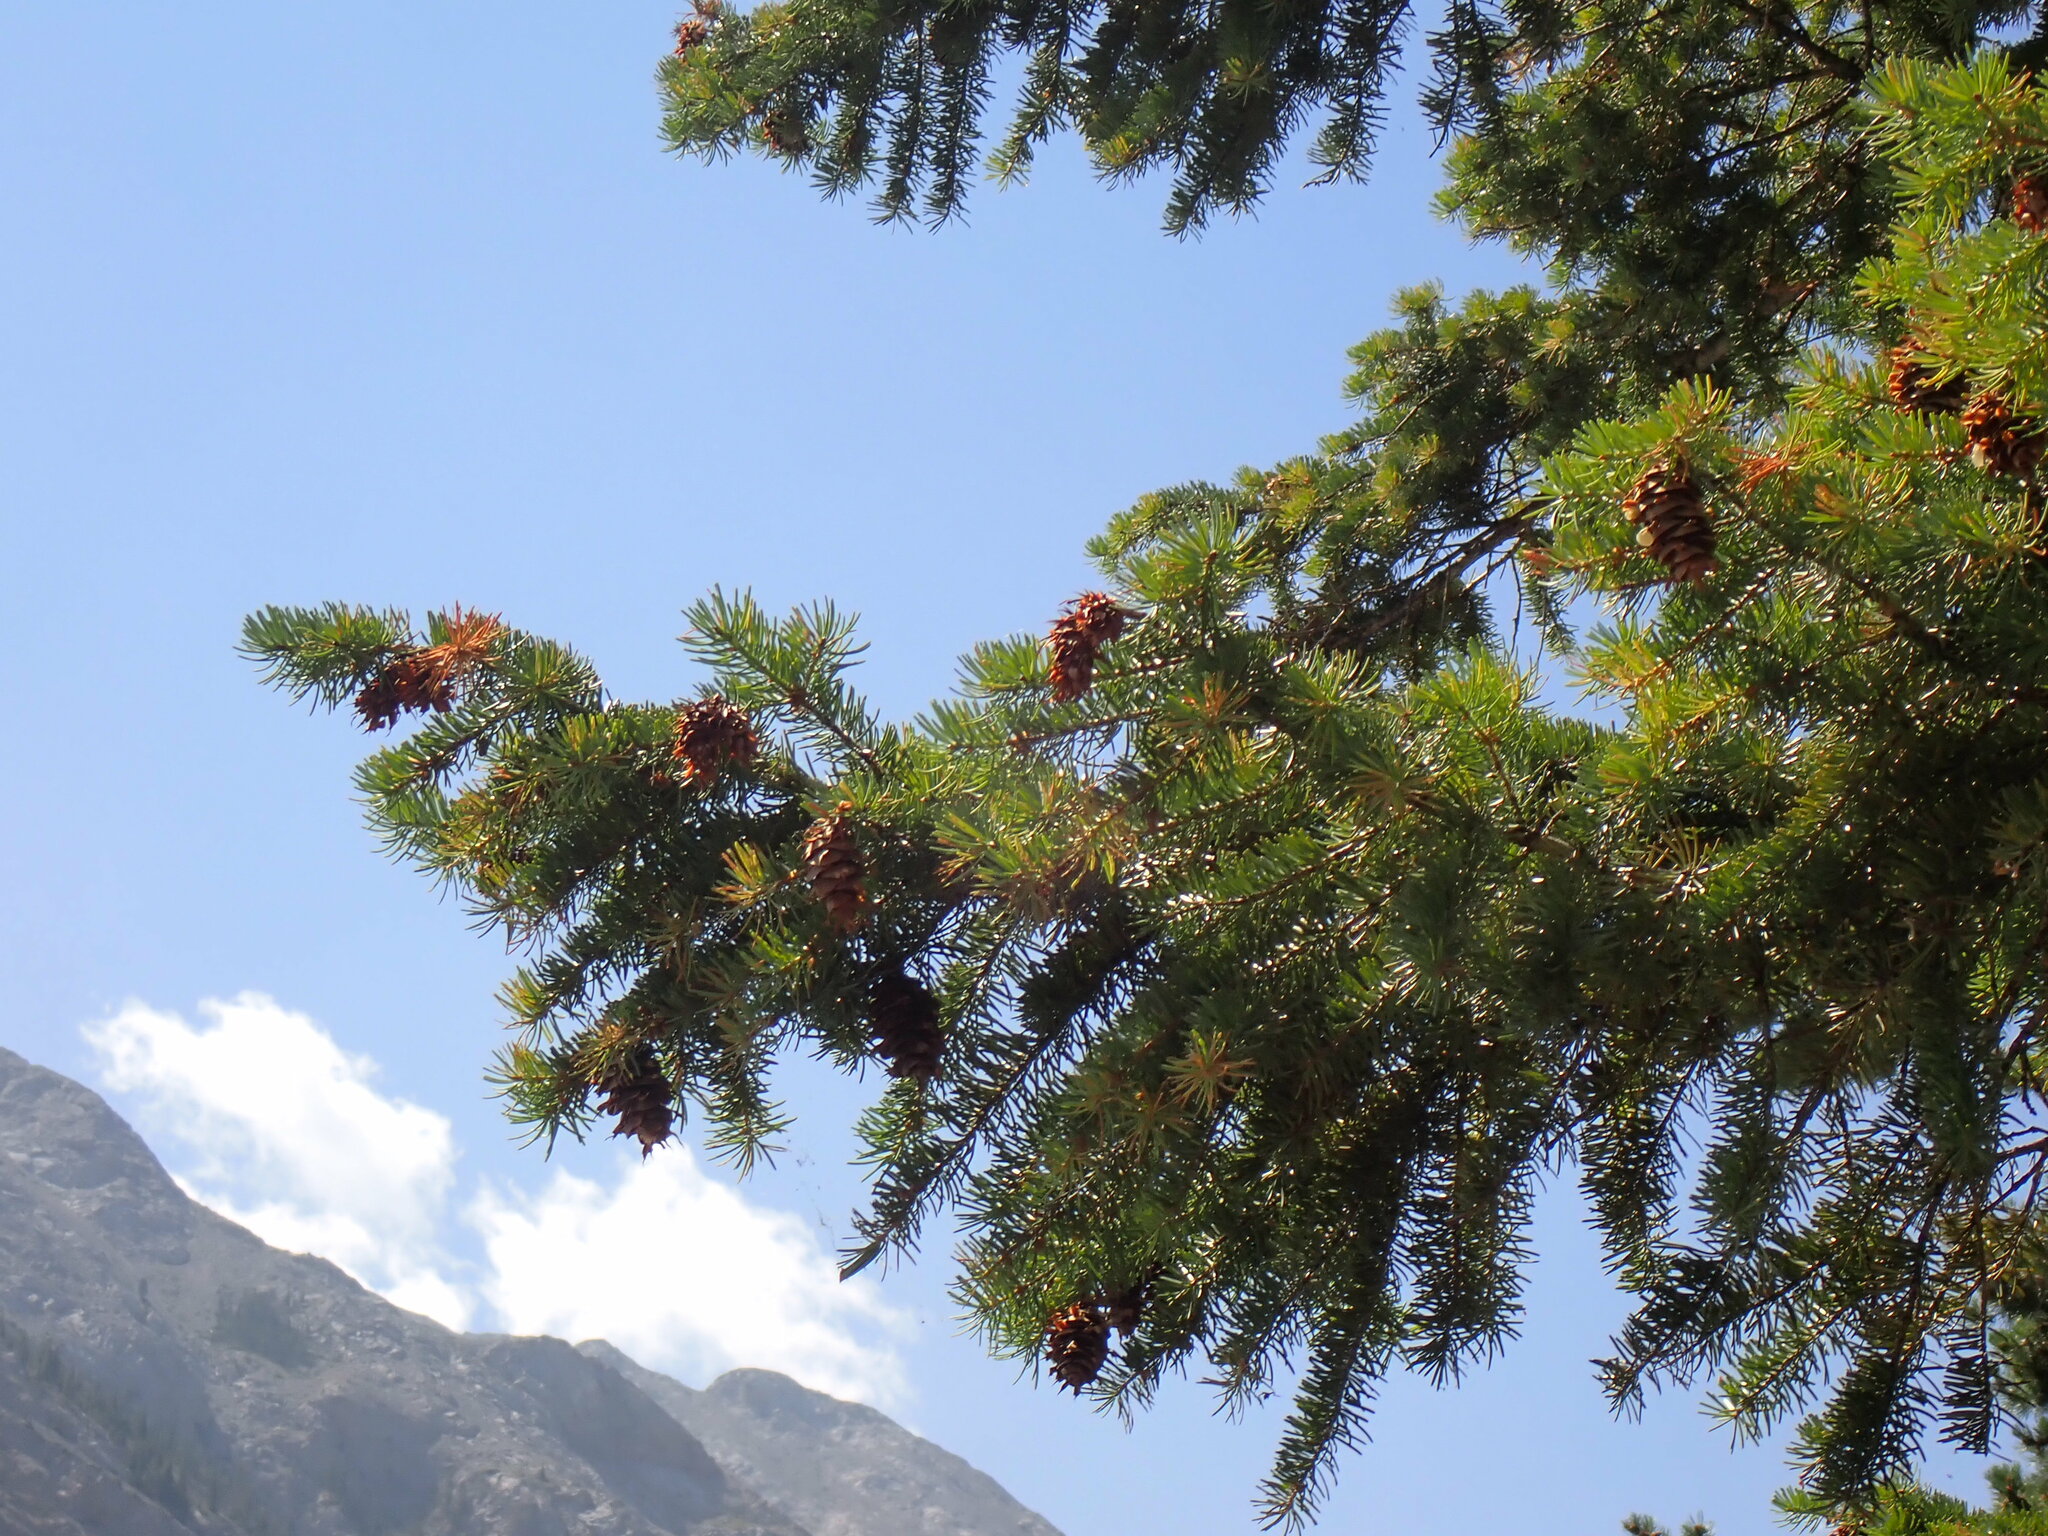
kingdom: Plantae
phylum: Tracheophyta
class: Pinopsida
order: Pinales
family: Pinaceae
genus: Pseudotsuga
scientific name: Pseudotsuga menziesii
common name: Douglas fir
